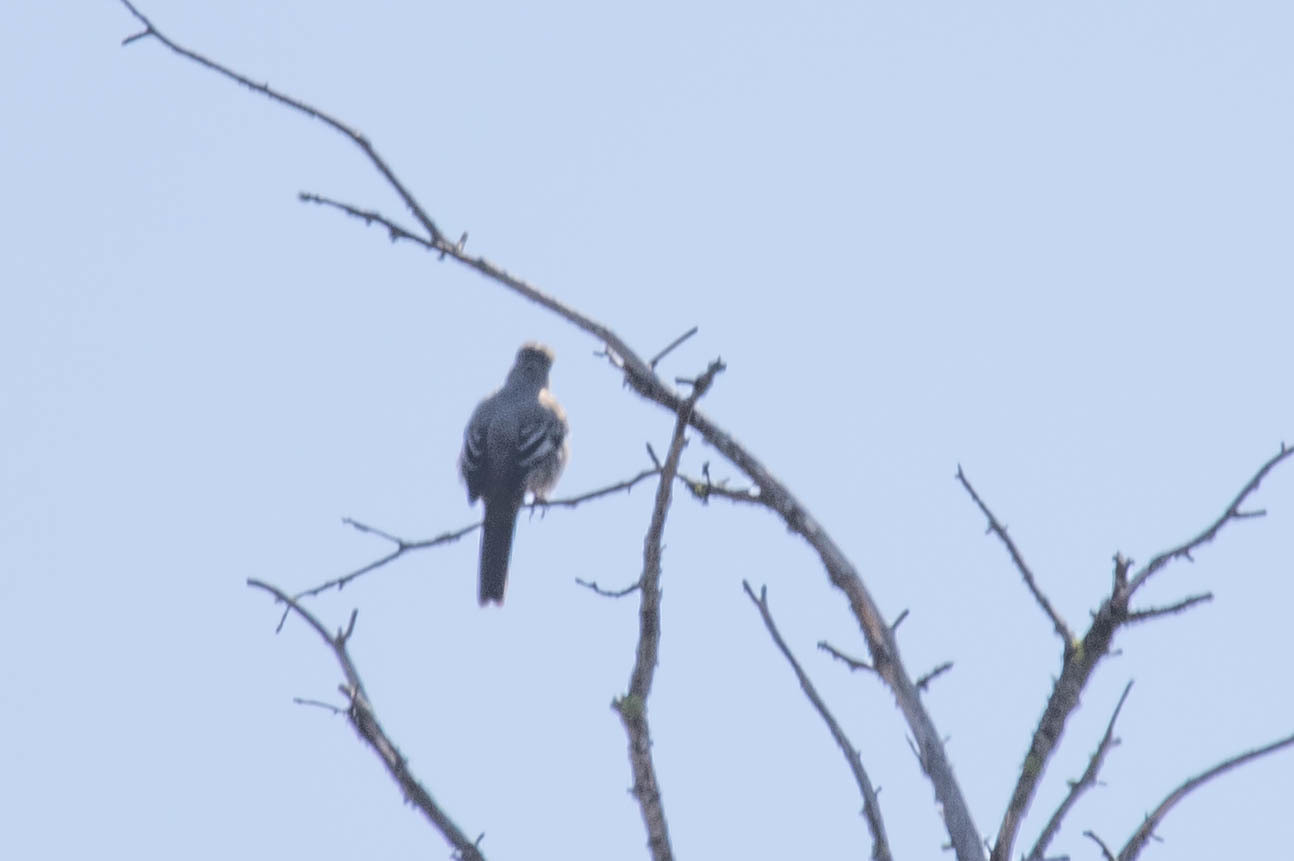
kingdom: Animalia
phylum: Chordata
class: Aves
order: Passeriformes
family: Turdidae
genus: Myadestes
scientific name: Myadestes townsendi
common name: Townsend's solitaire
